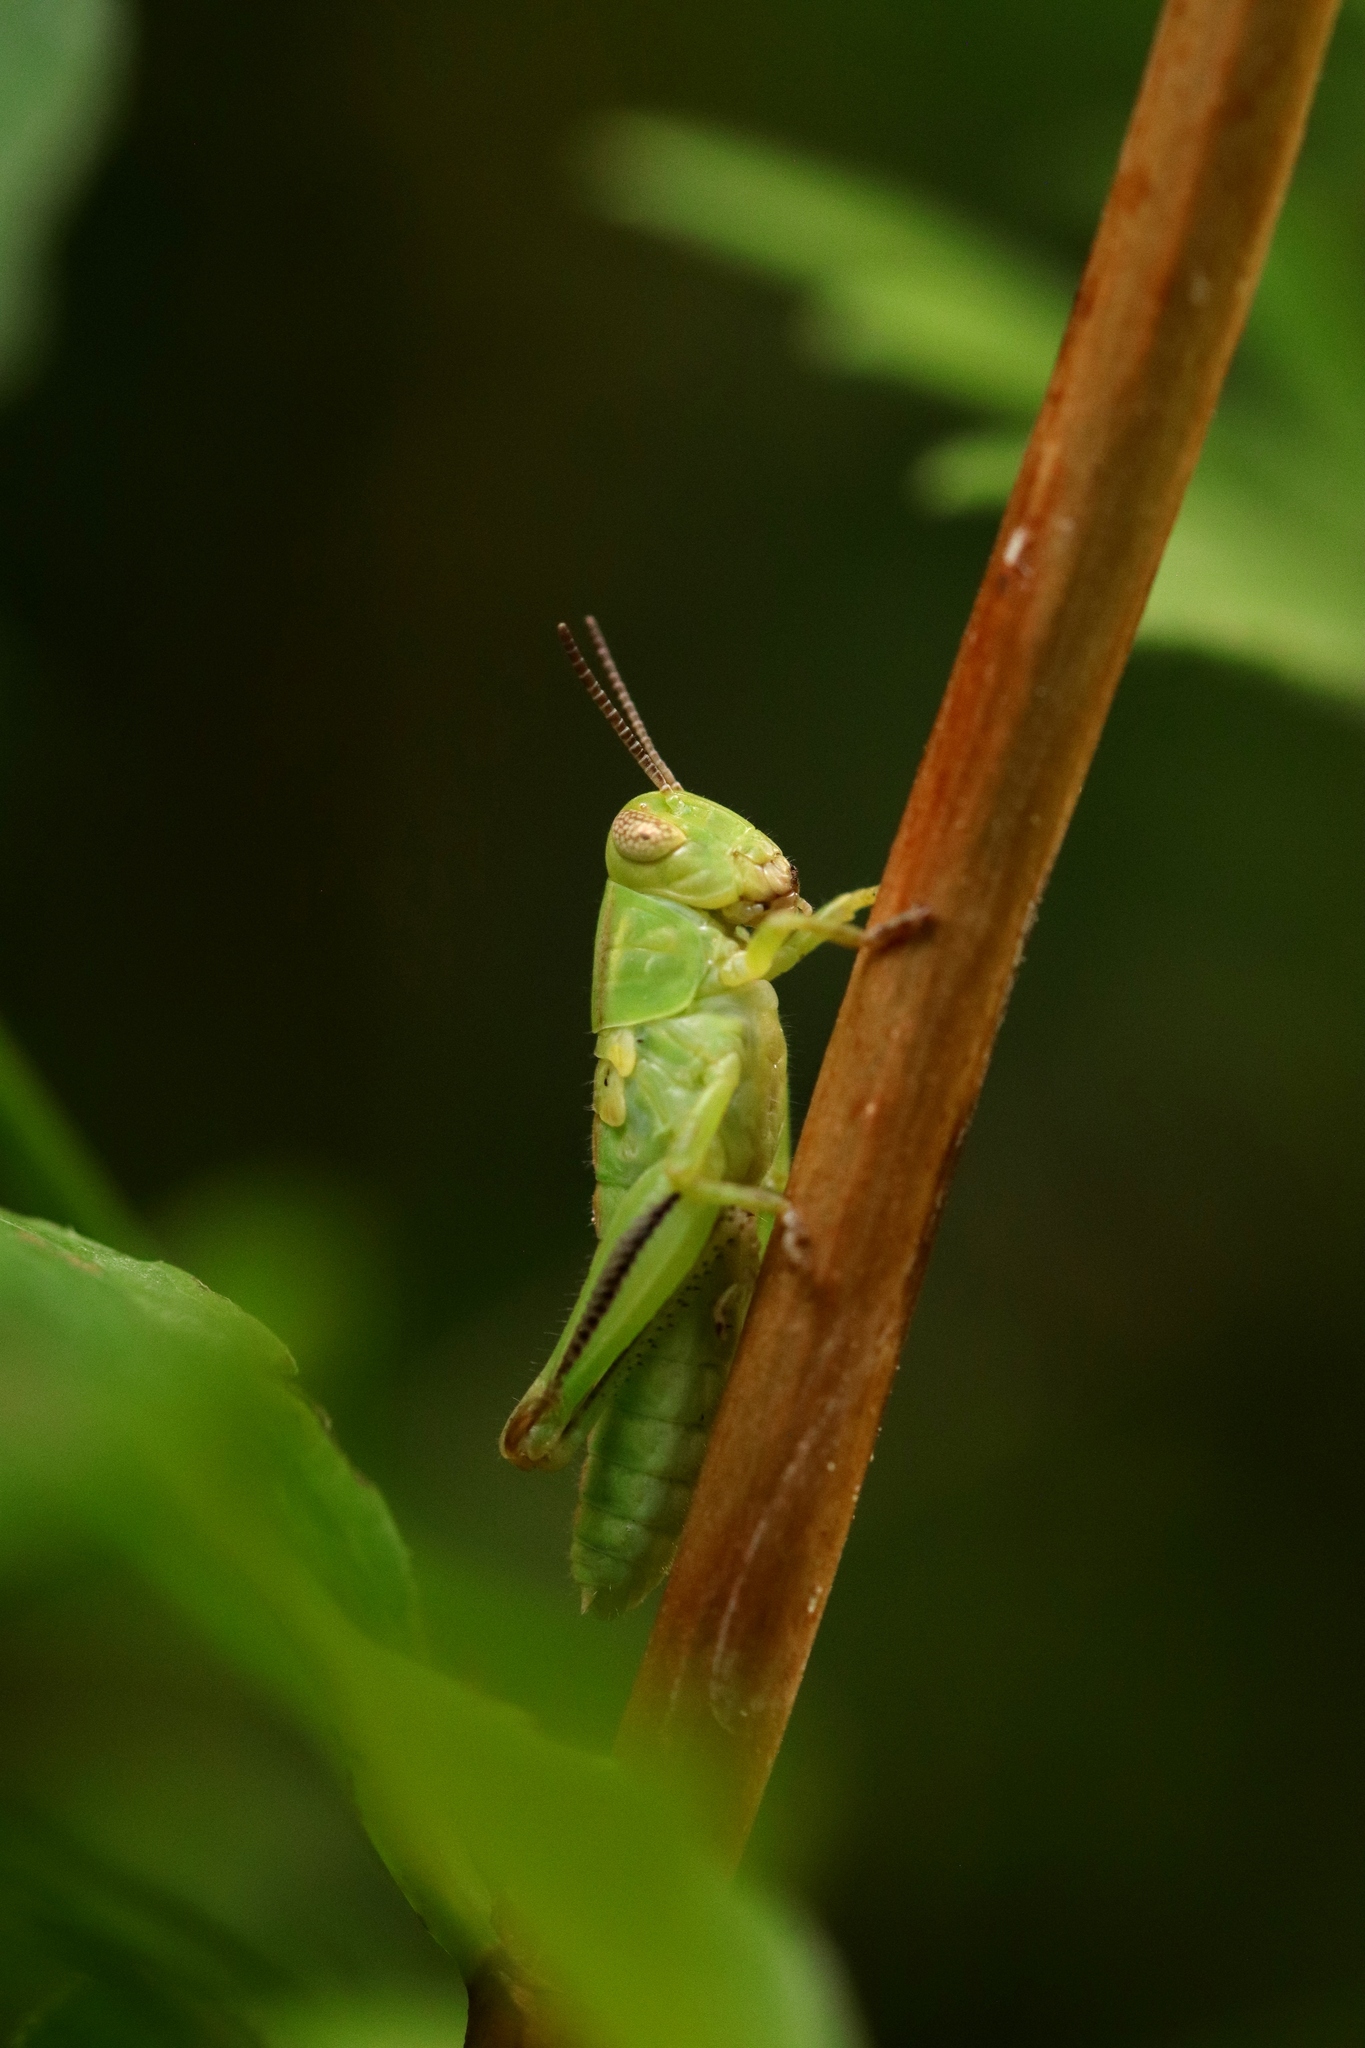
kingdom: Animalia
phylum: Arthropoda
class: Insecta
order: Orthoptera
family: Acrididae
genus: Melanoplus
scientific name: Melanoplus bivittatus
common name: Two-striped grasshopper
